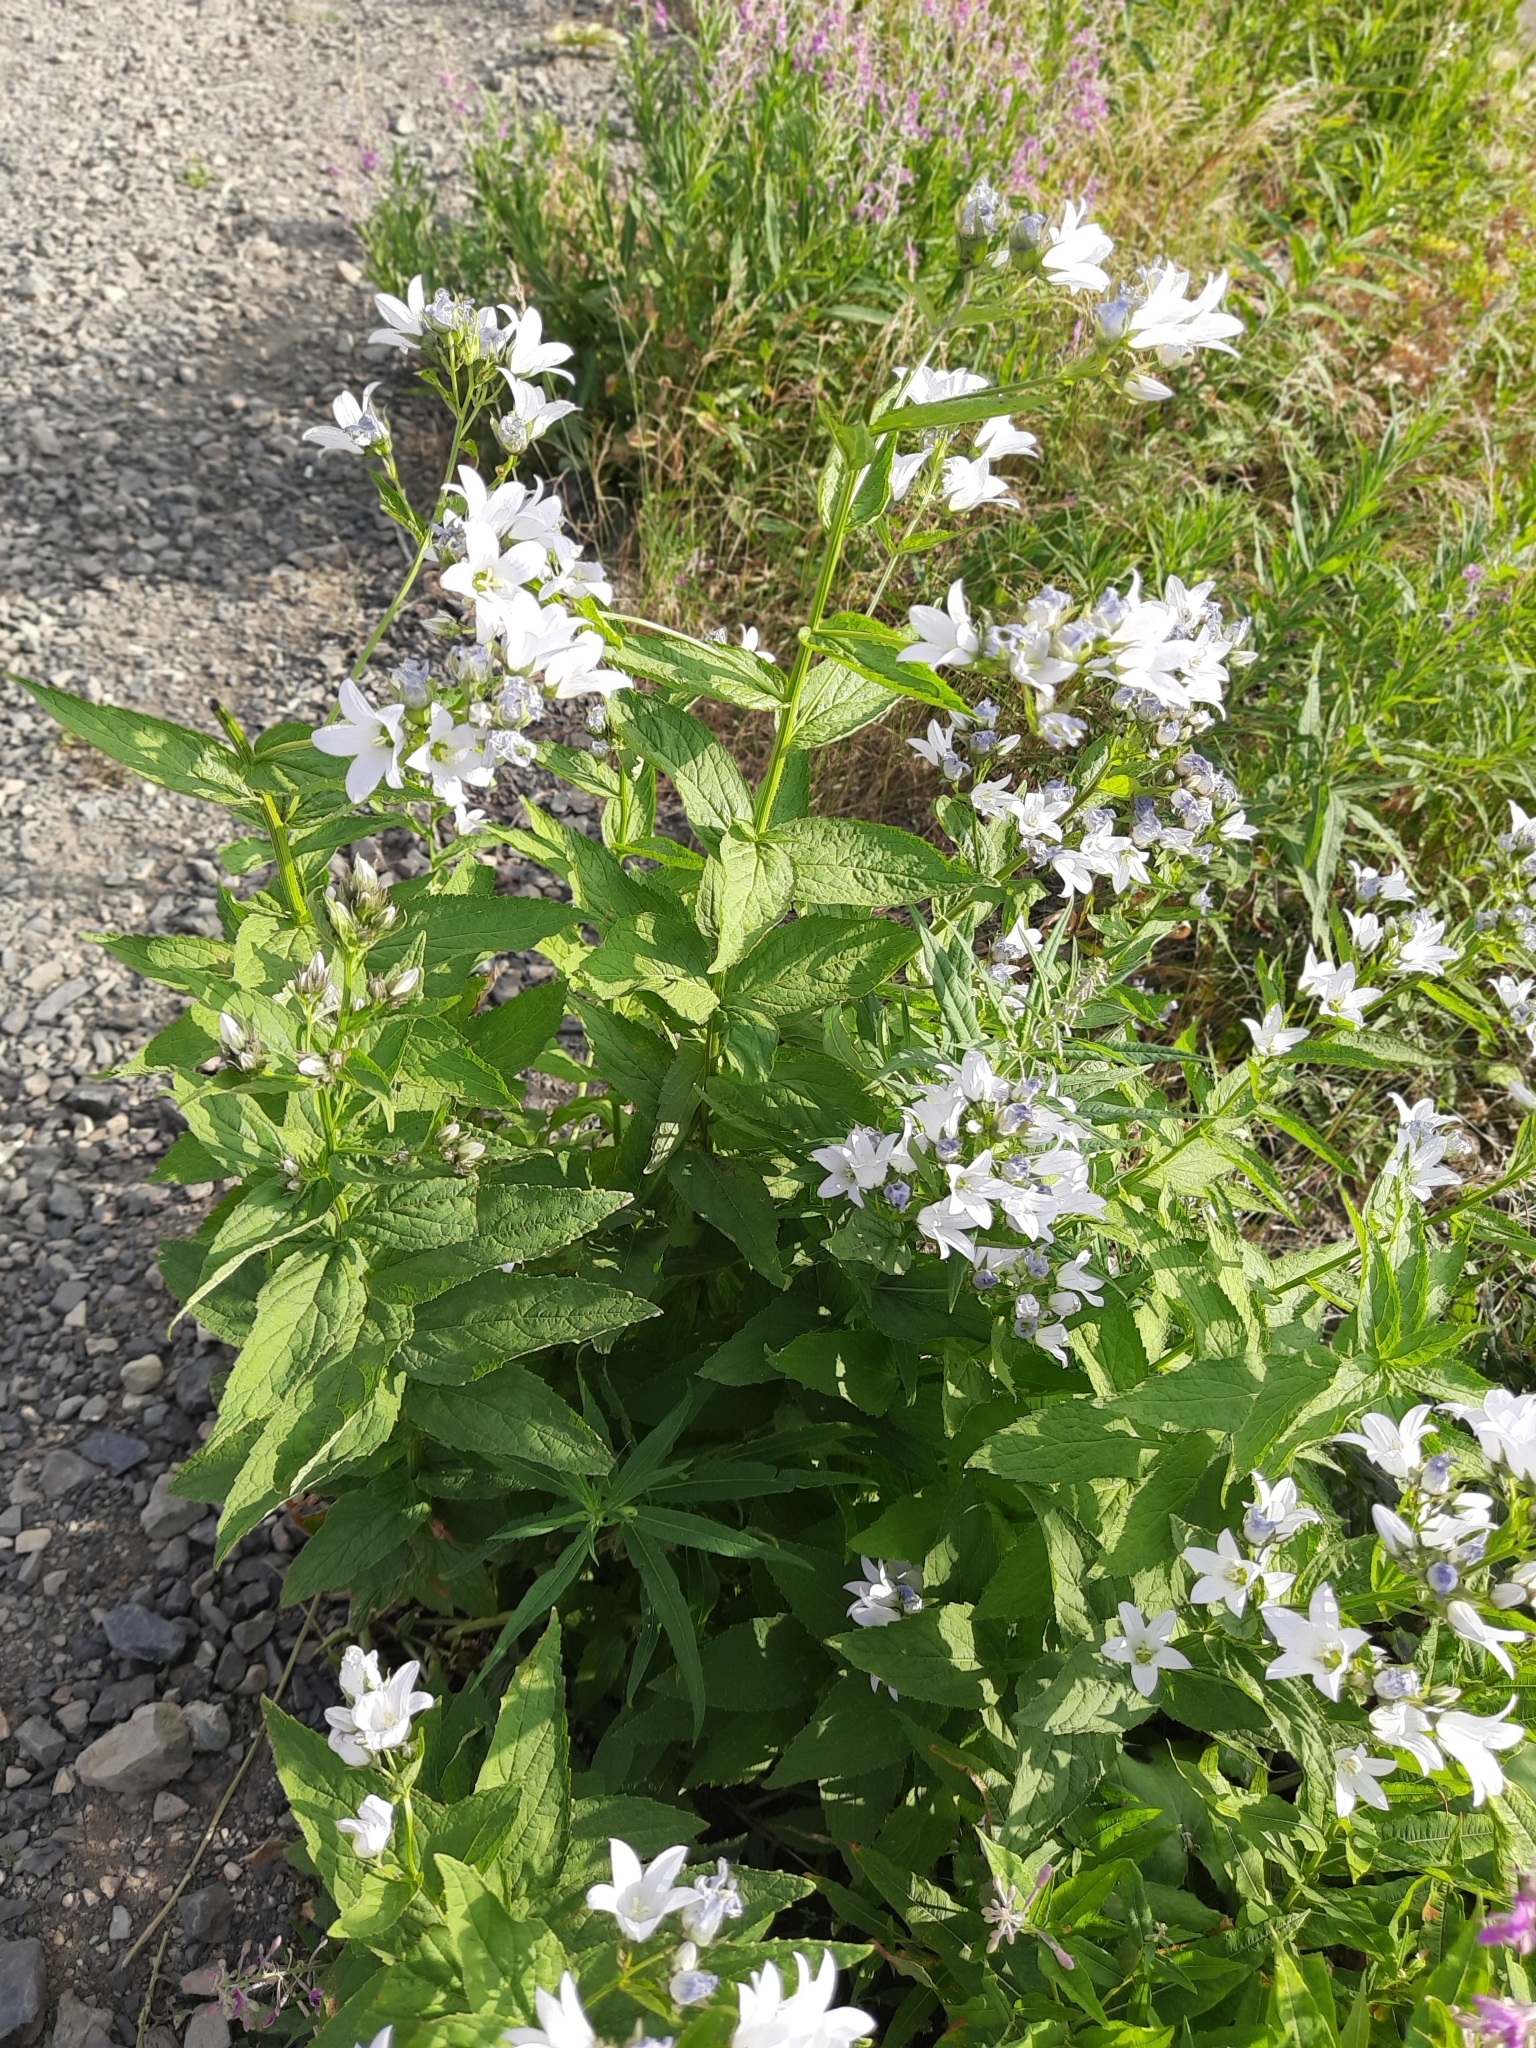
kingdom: Plantae
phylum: Tracheophyta
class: Magnoliopsida
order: Asterales
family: Campanulaceae
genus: Campanula
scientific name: Campanula lactiflora
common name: Milky bellflower
